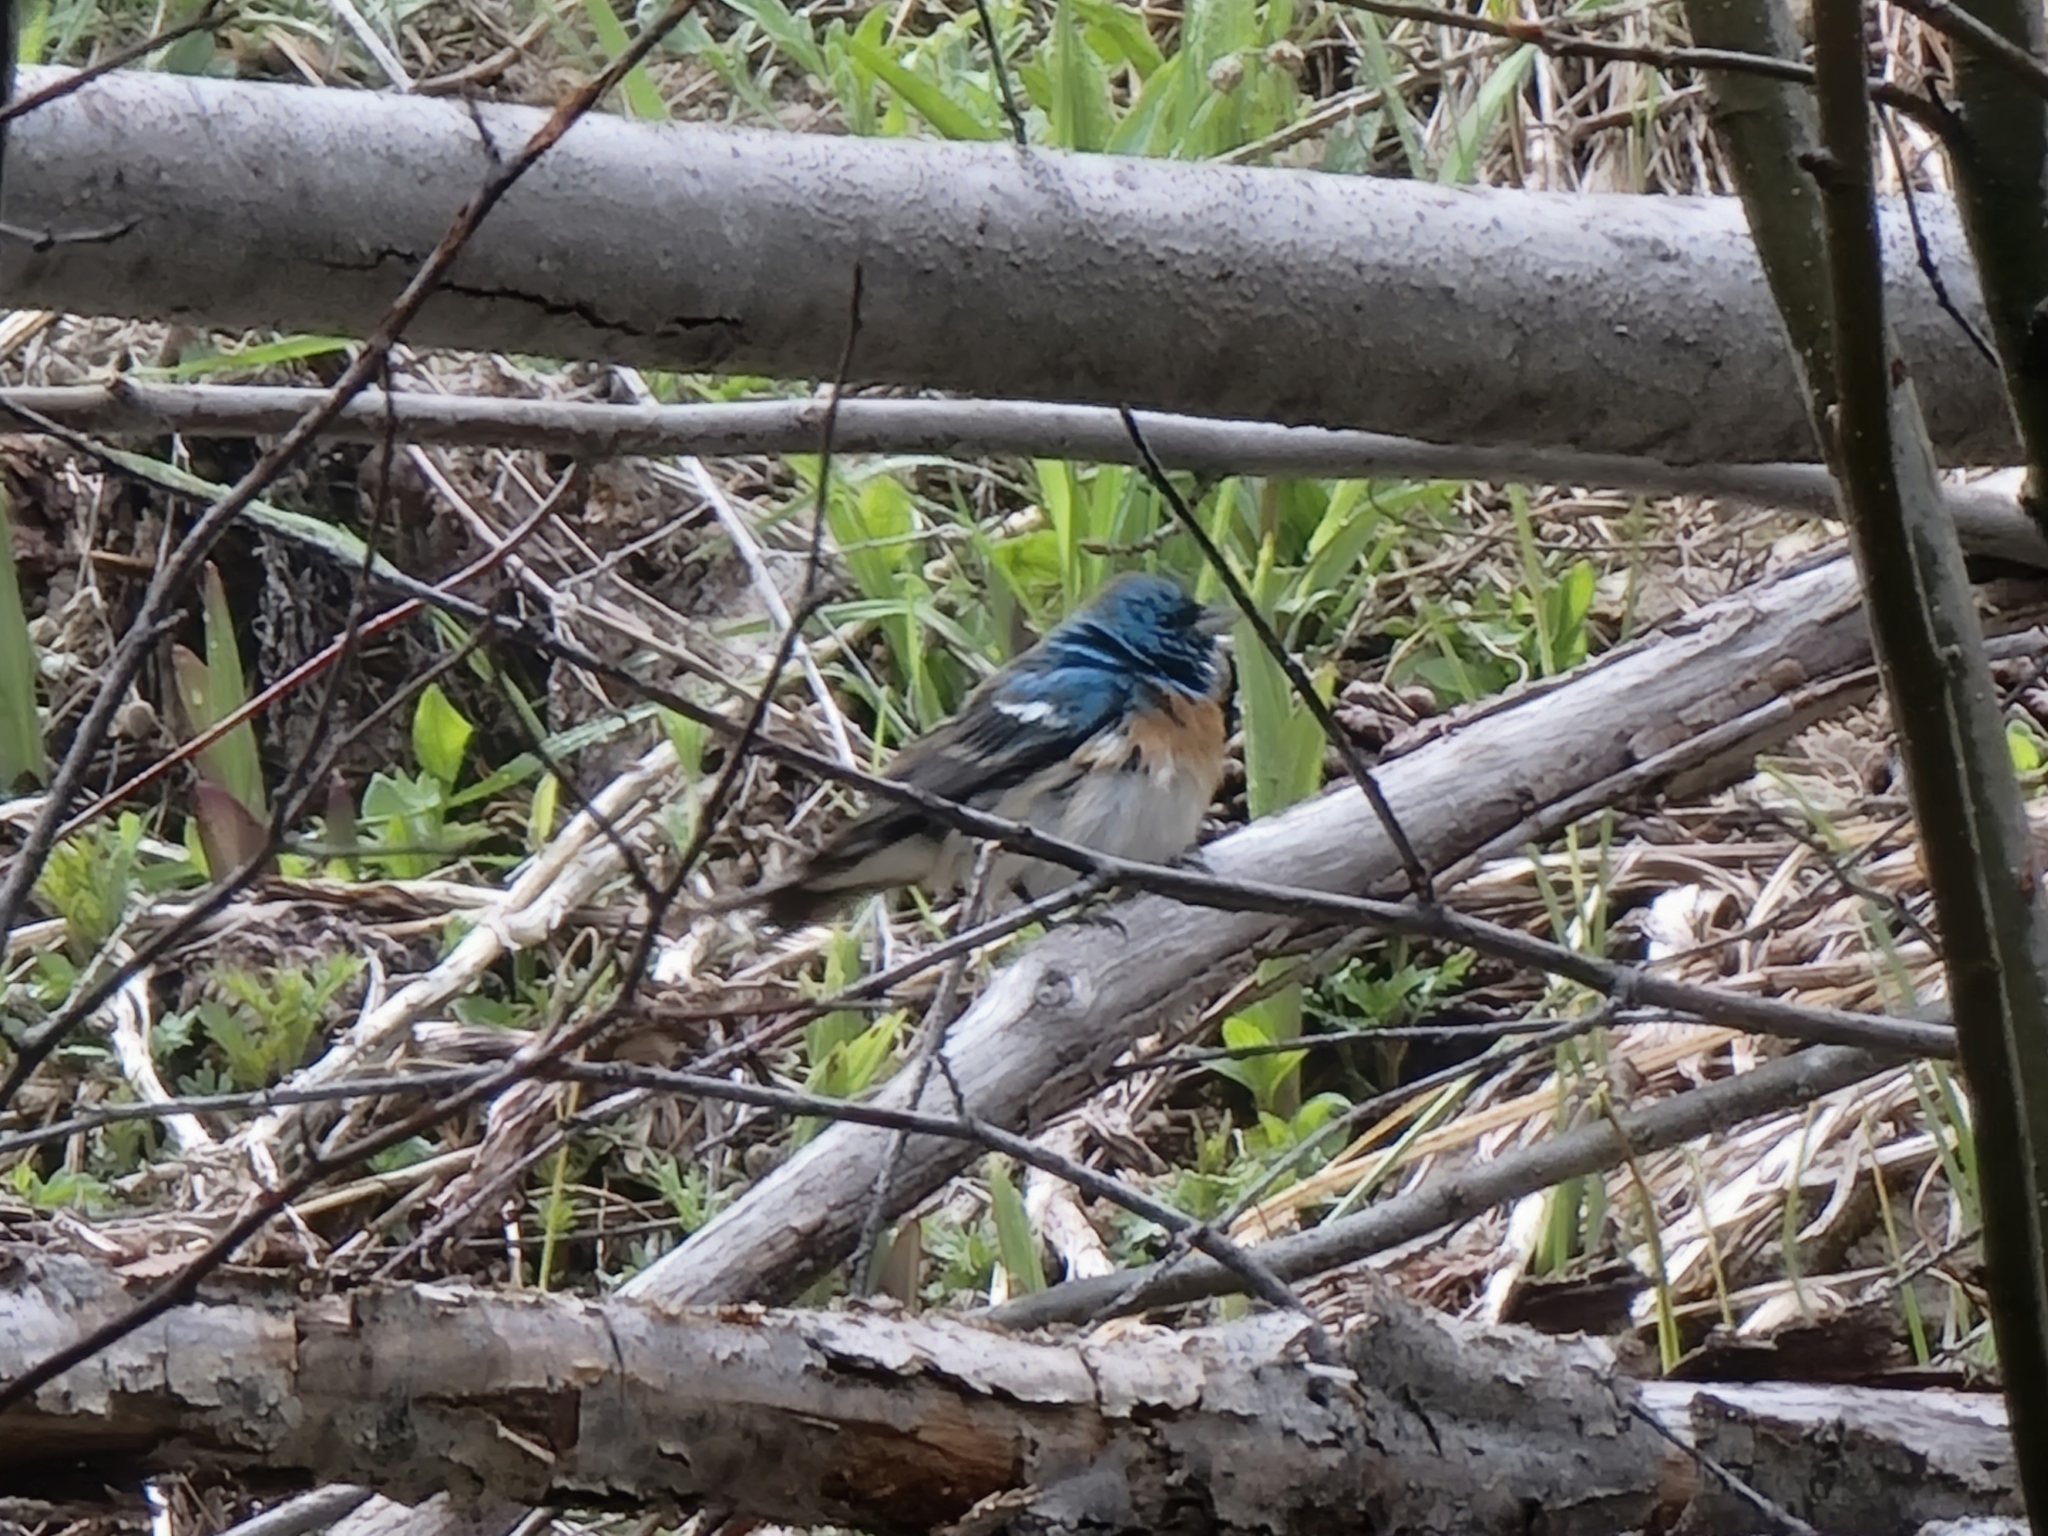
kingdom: Animalia
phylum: Chordata
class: Aves
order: Passeriformes
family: Cardinalidae
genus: Passerina
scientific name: Passerina amoena
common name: Lazuli bunting
